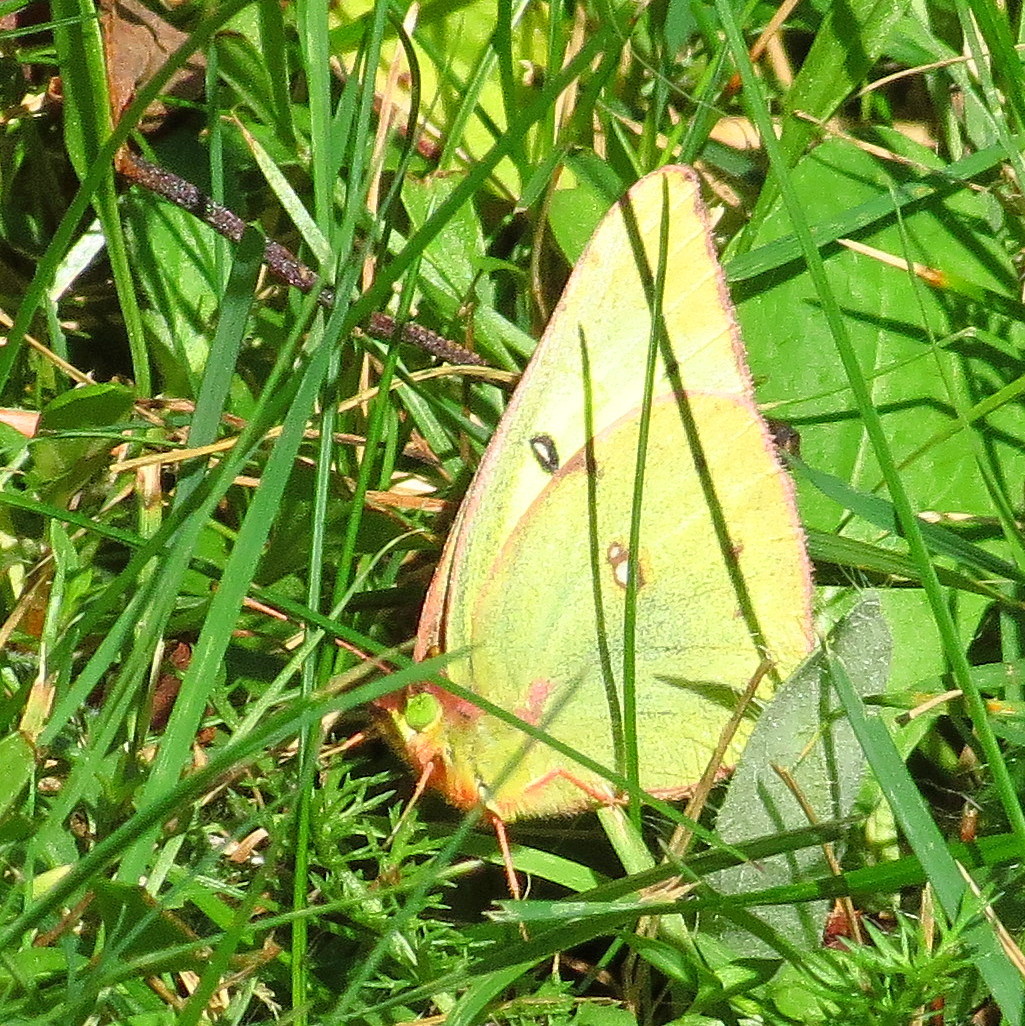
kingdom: Animalia
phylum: Arthropoda
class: Insecta
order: Lepidoptera
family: Pieridae
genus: Colias
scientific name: Colias philodice
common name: Clouded sulphur
